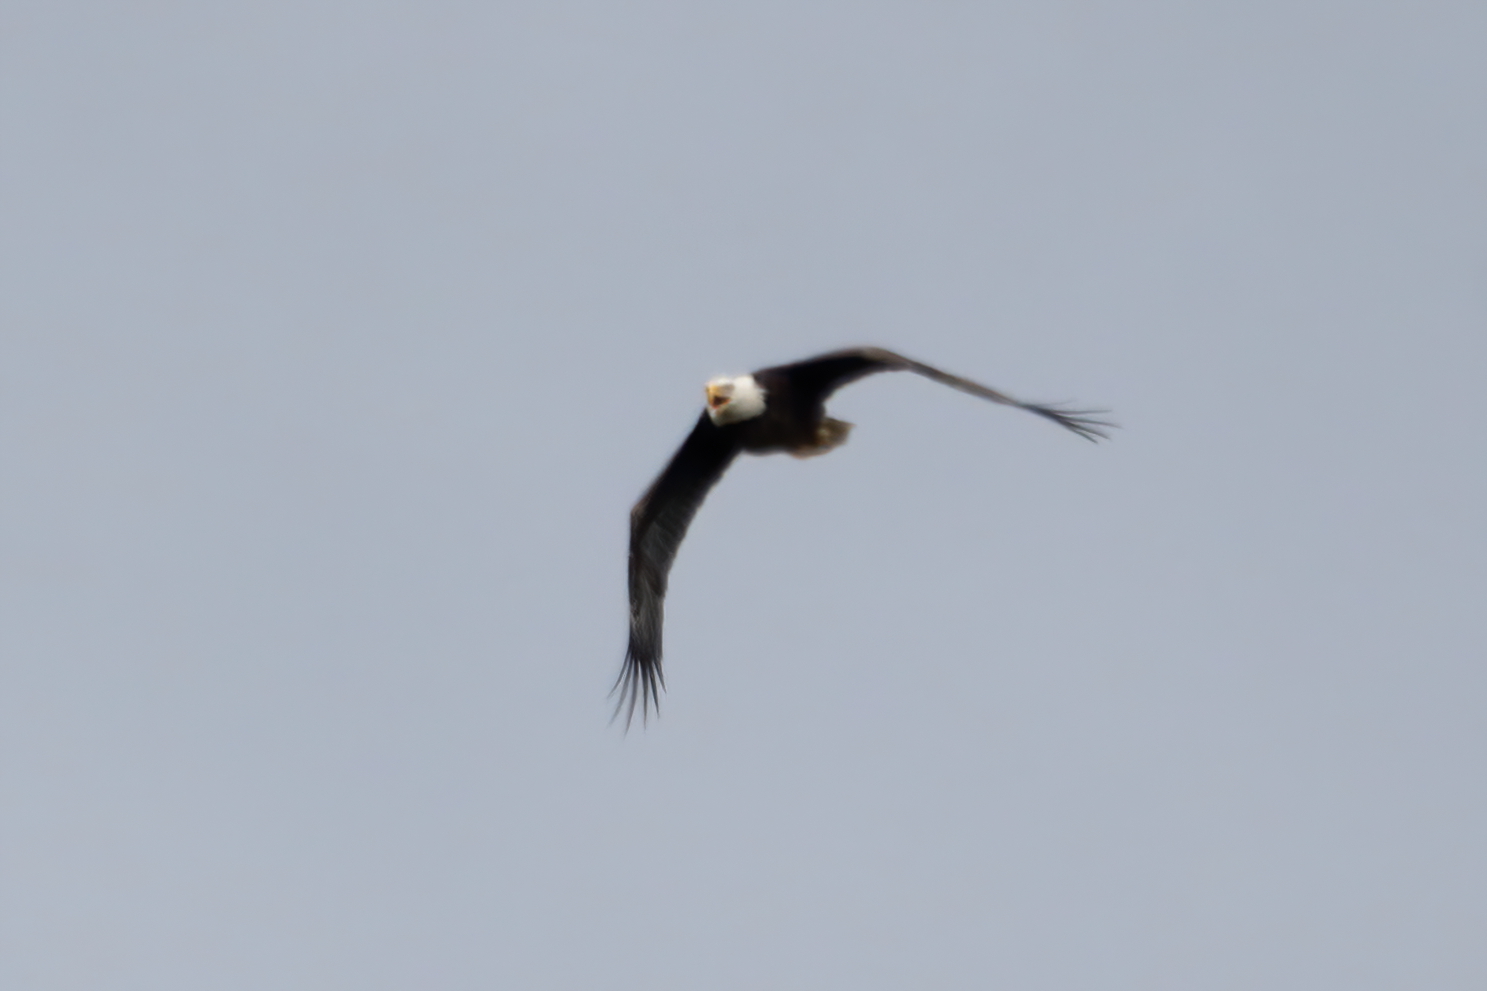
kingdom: Animalia
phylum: Chordata
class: Aves
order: Accipitriformes
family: Accipitridae
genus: Haliaeetus
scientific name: Haliaeetus leucocephalus
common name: Bald eagle
